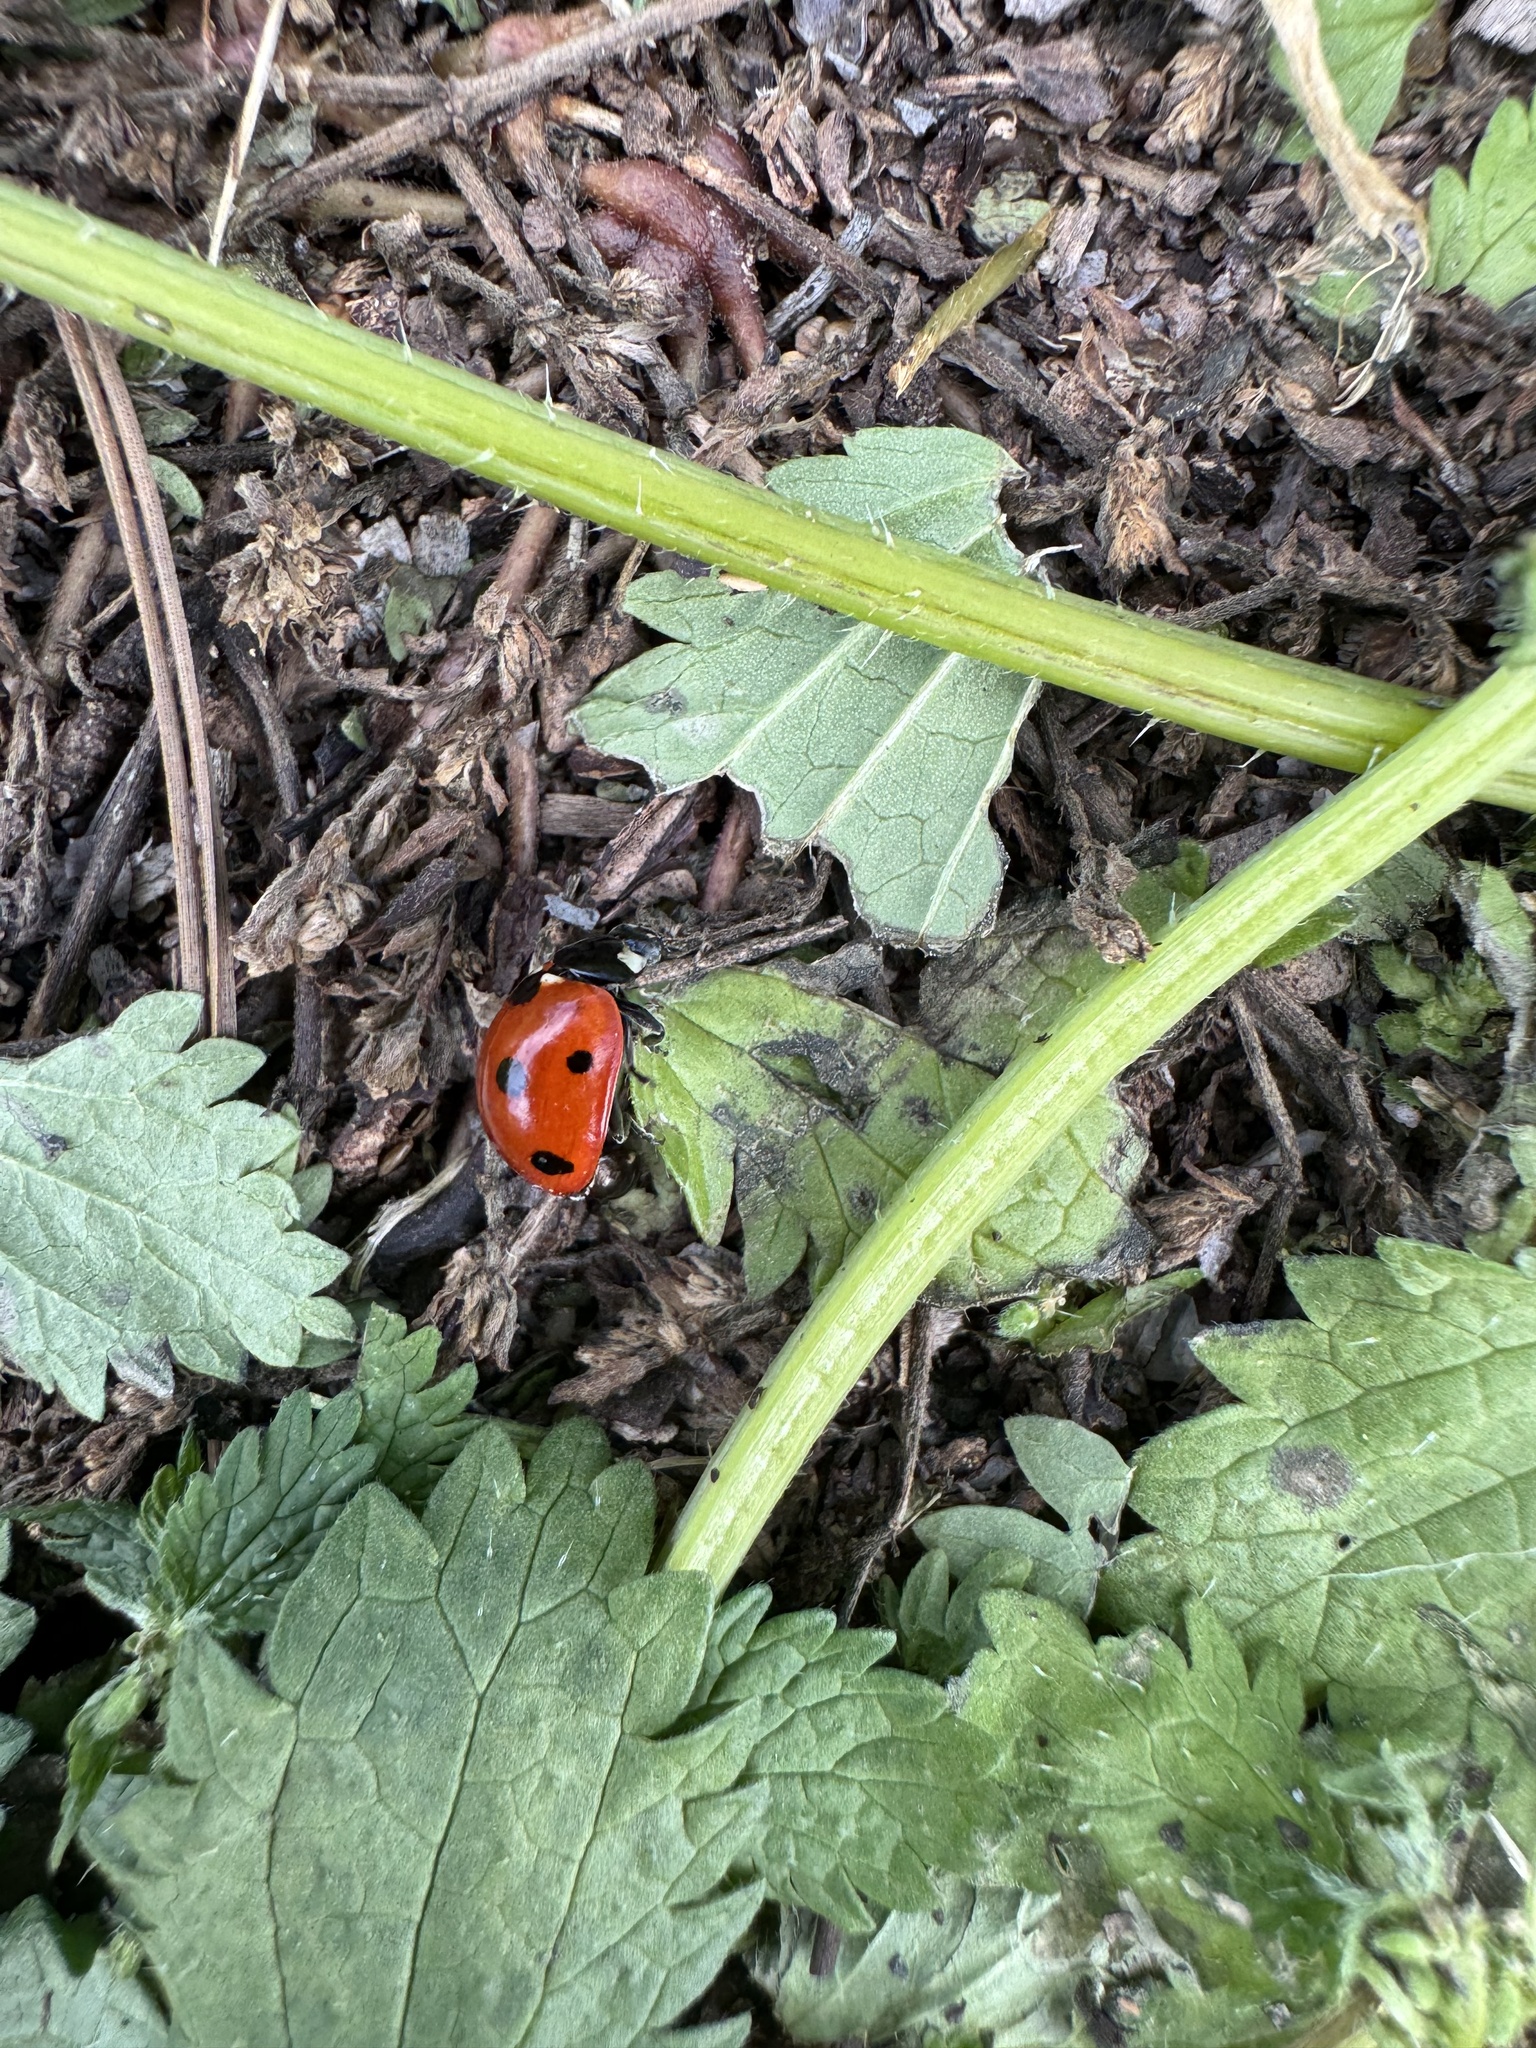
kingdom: Animalia
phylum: Arthropoda
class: Insecta
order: Coleoptera
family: Coccinellidae
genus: Coccinella
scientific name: Coccinella septempunctata
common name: Sevenspotted lady beetle
